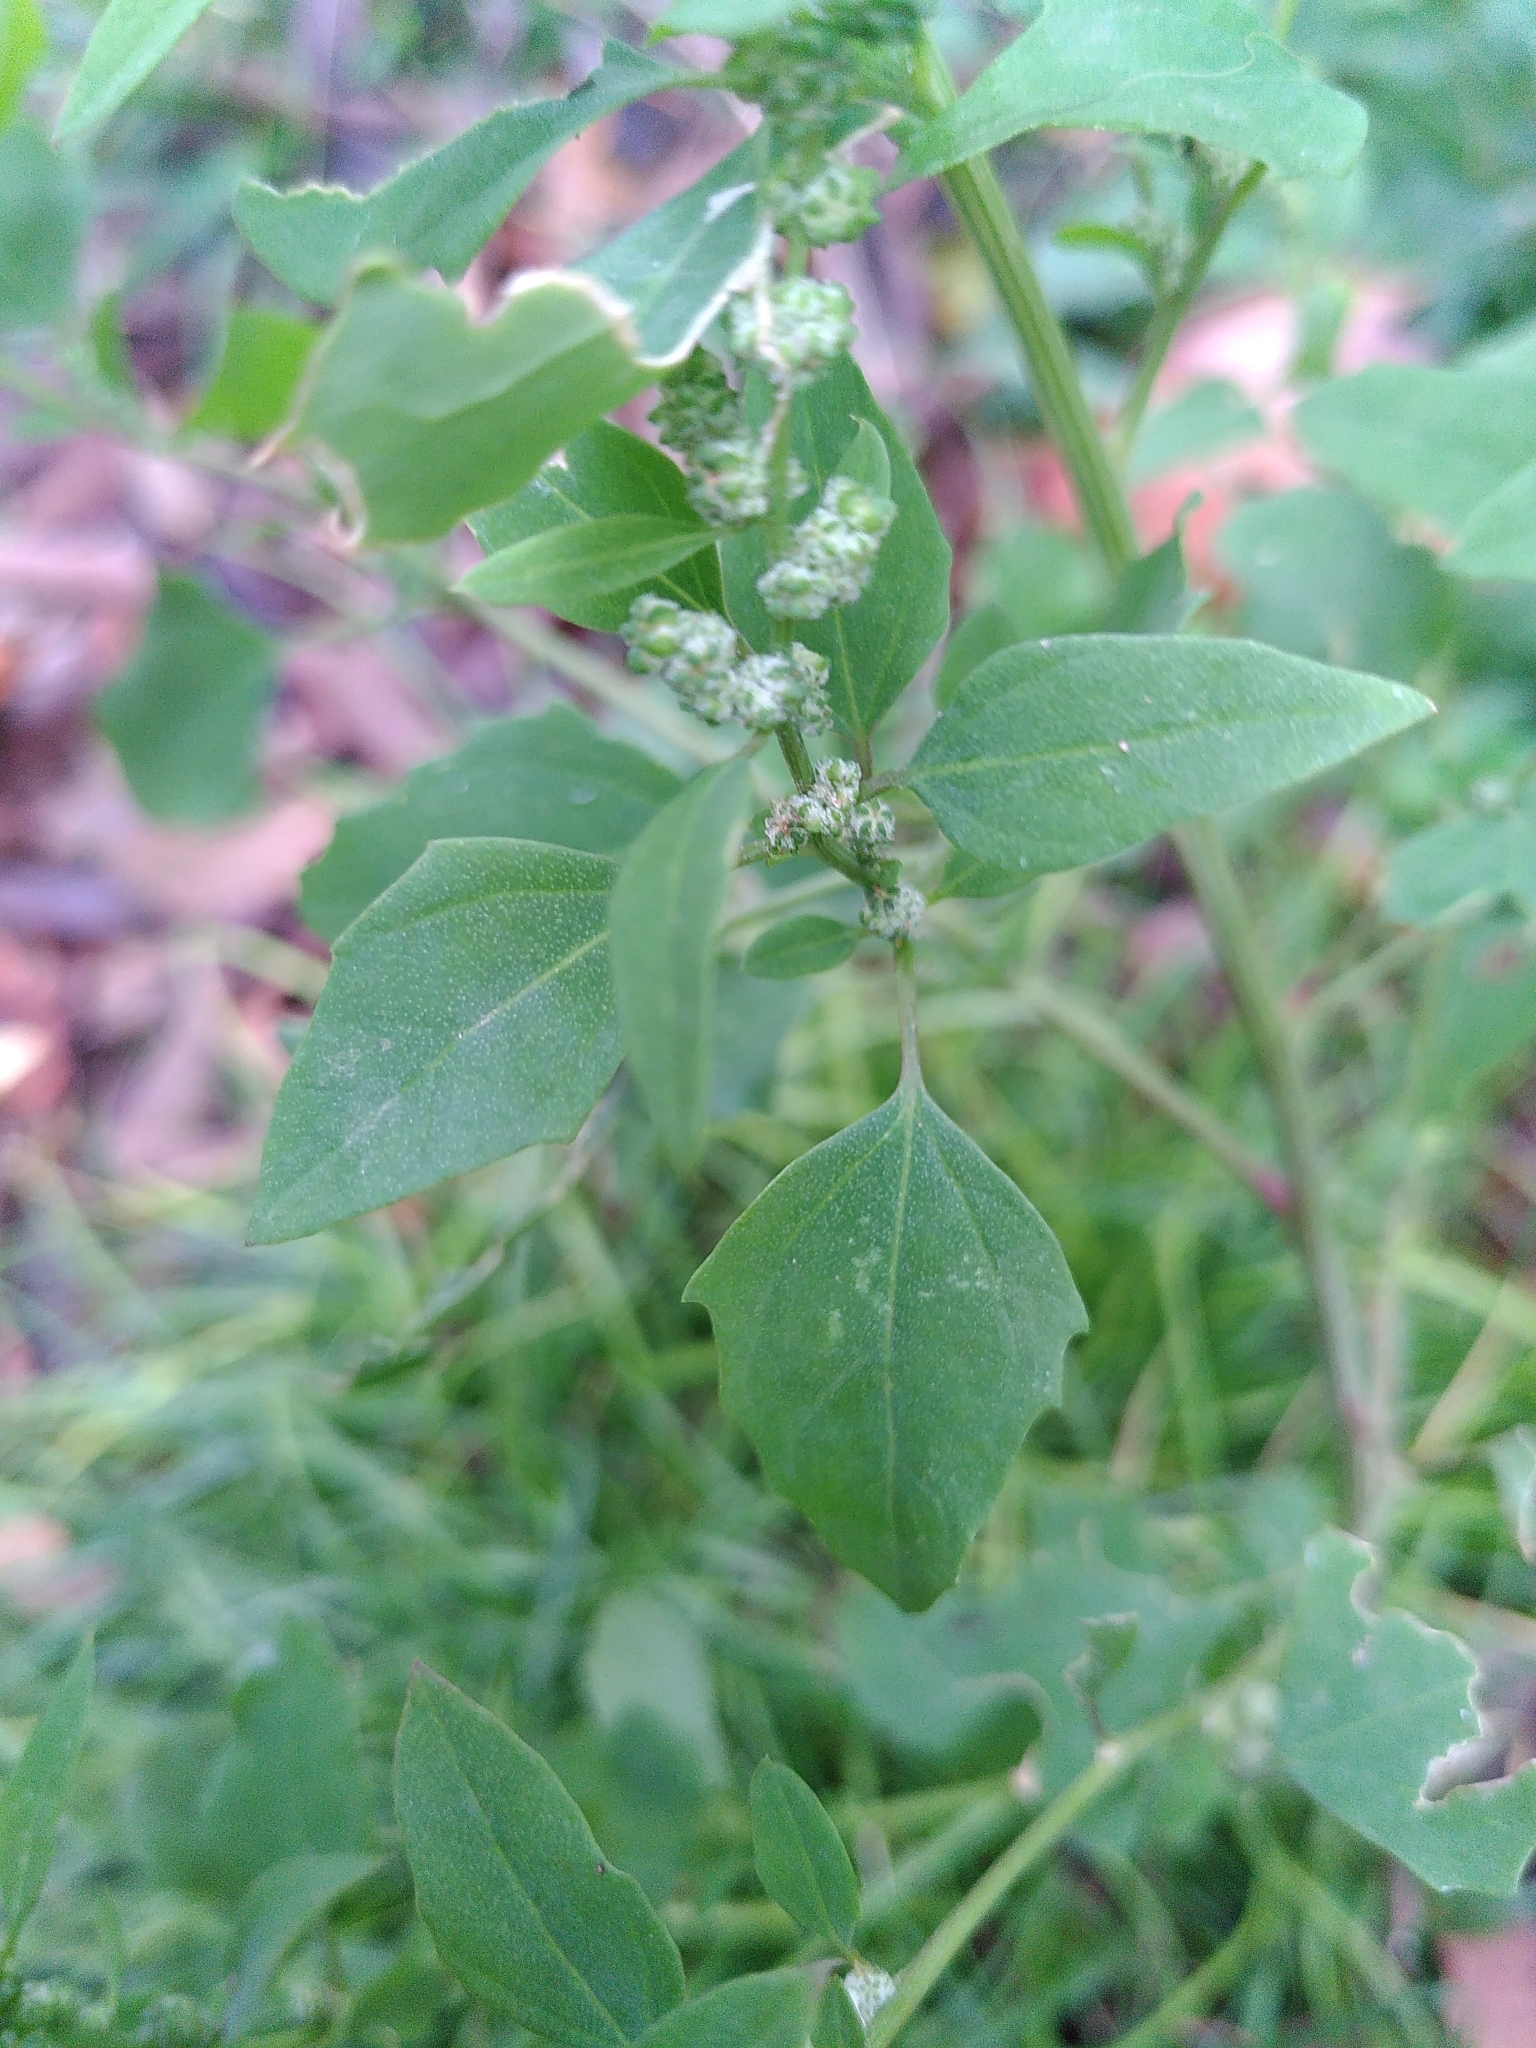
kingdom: Plantae
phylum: Tracheophyta
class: Magnoliopsida
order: Caryophyllales
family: Amaranthaceae
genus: Chenopodium
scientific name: Chenopodium album
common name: Fat-hen
